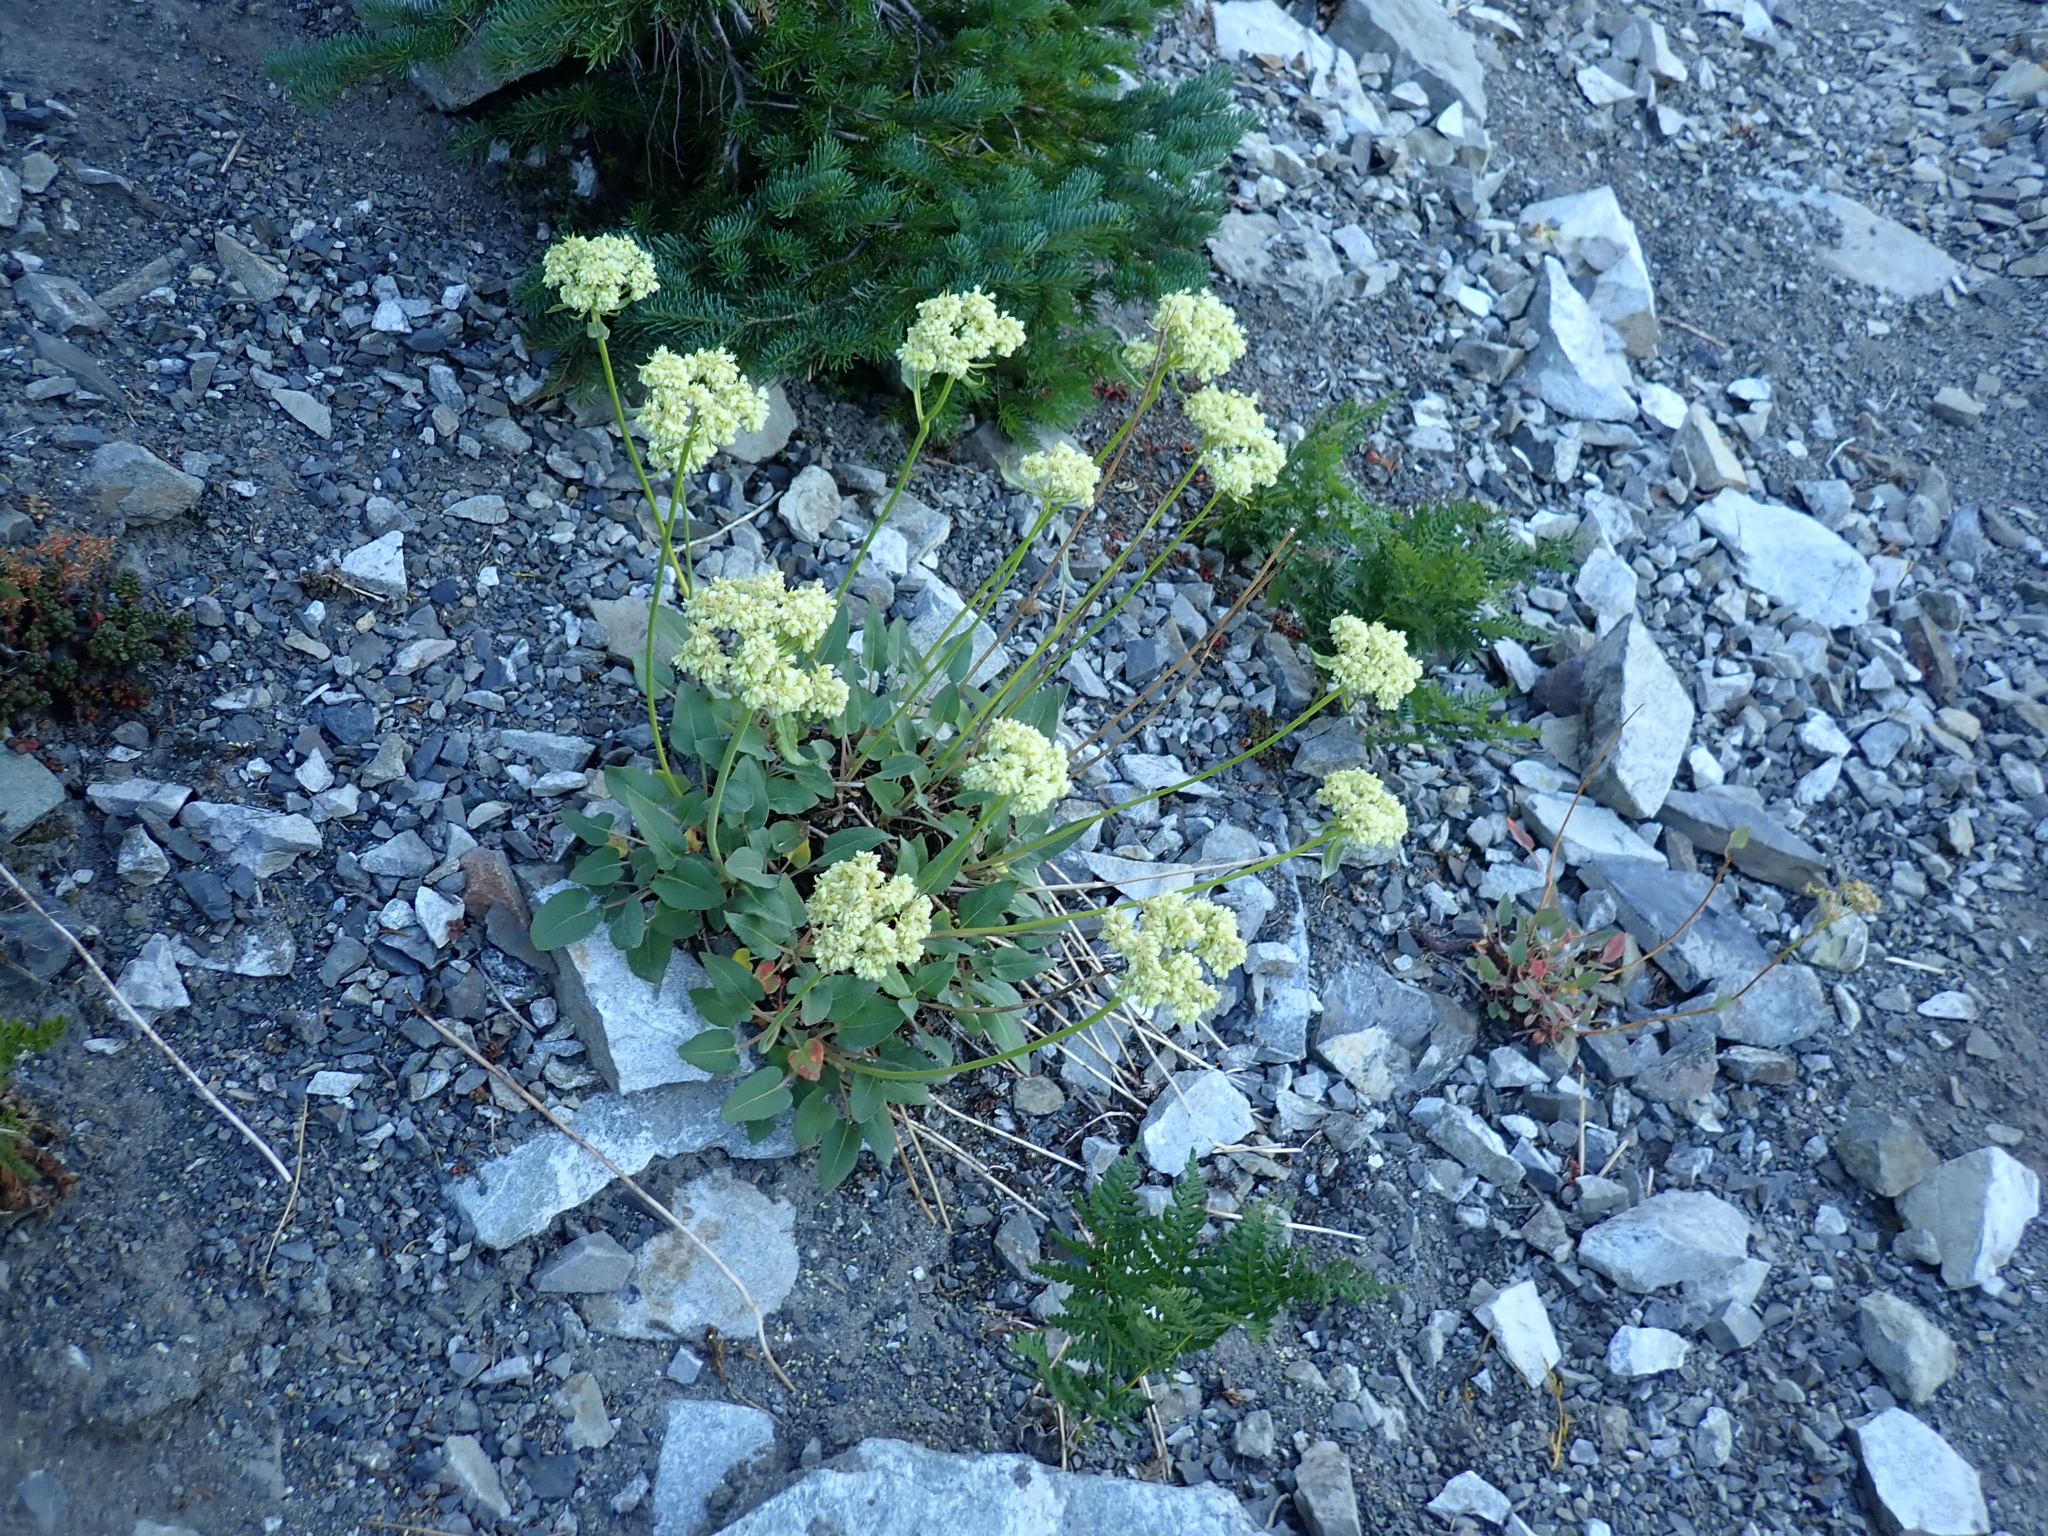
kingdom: Plantae
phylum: Tracheophyta
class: Magnoliopsida
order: Caryophyllales
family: Polygonaceae
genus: Eriogonum
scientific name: Eriogonum compositum
